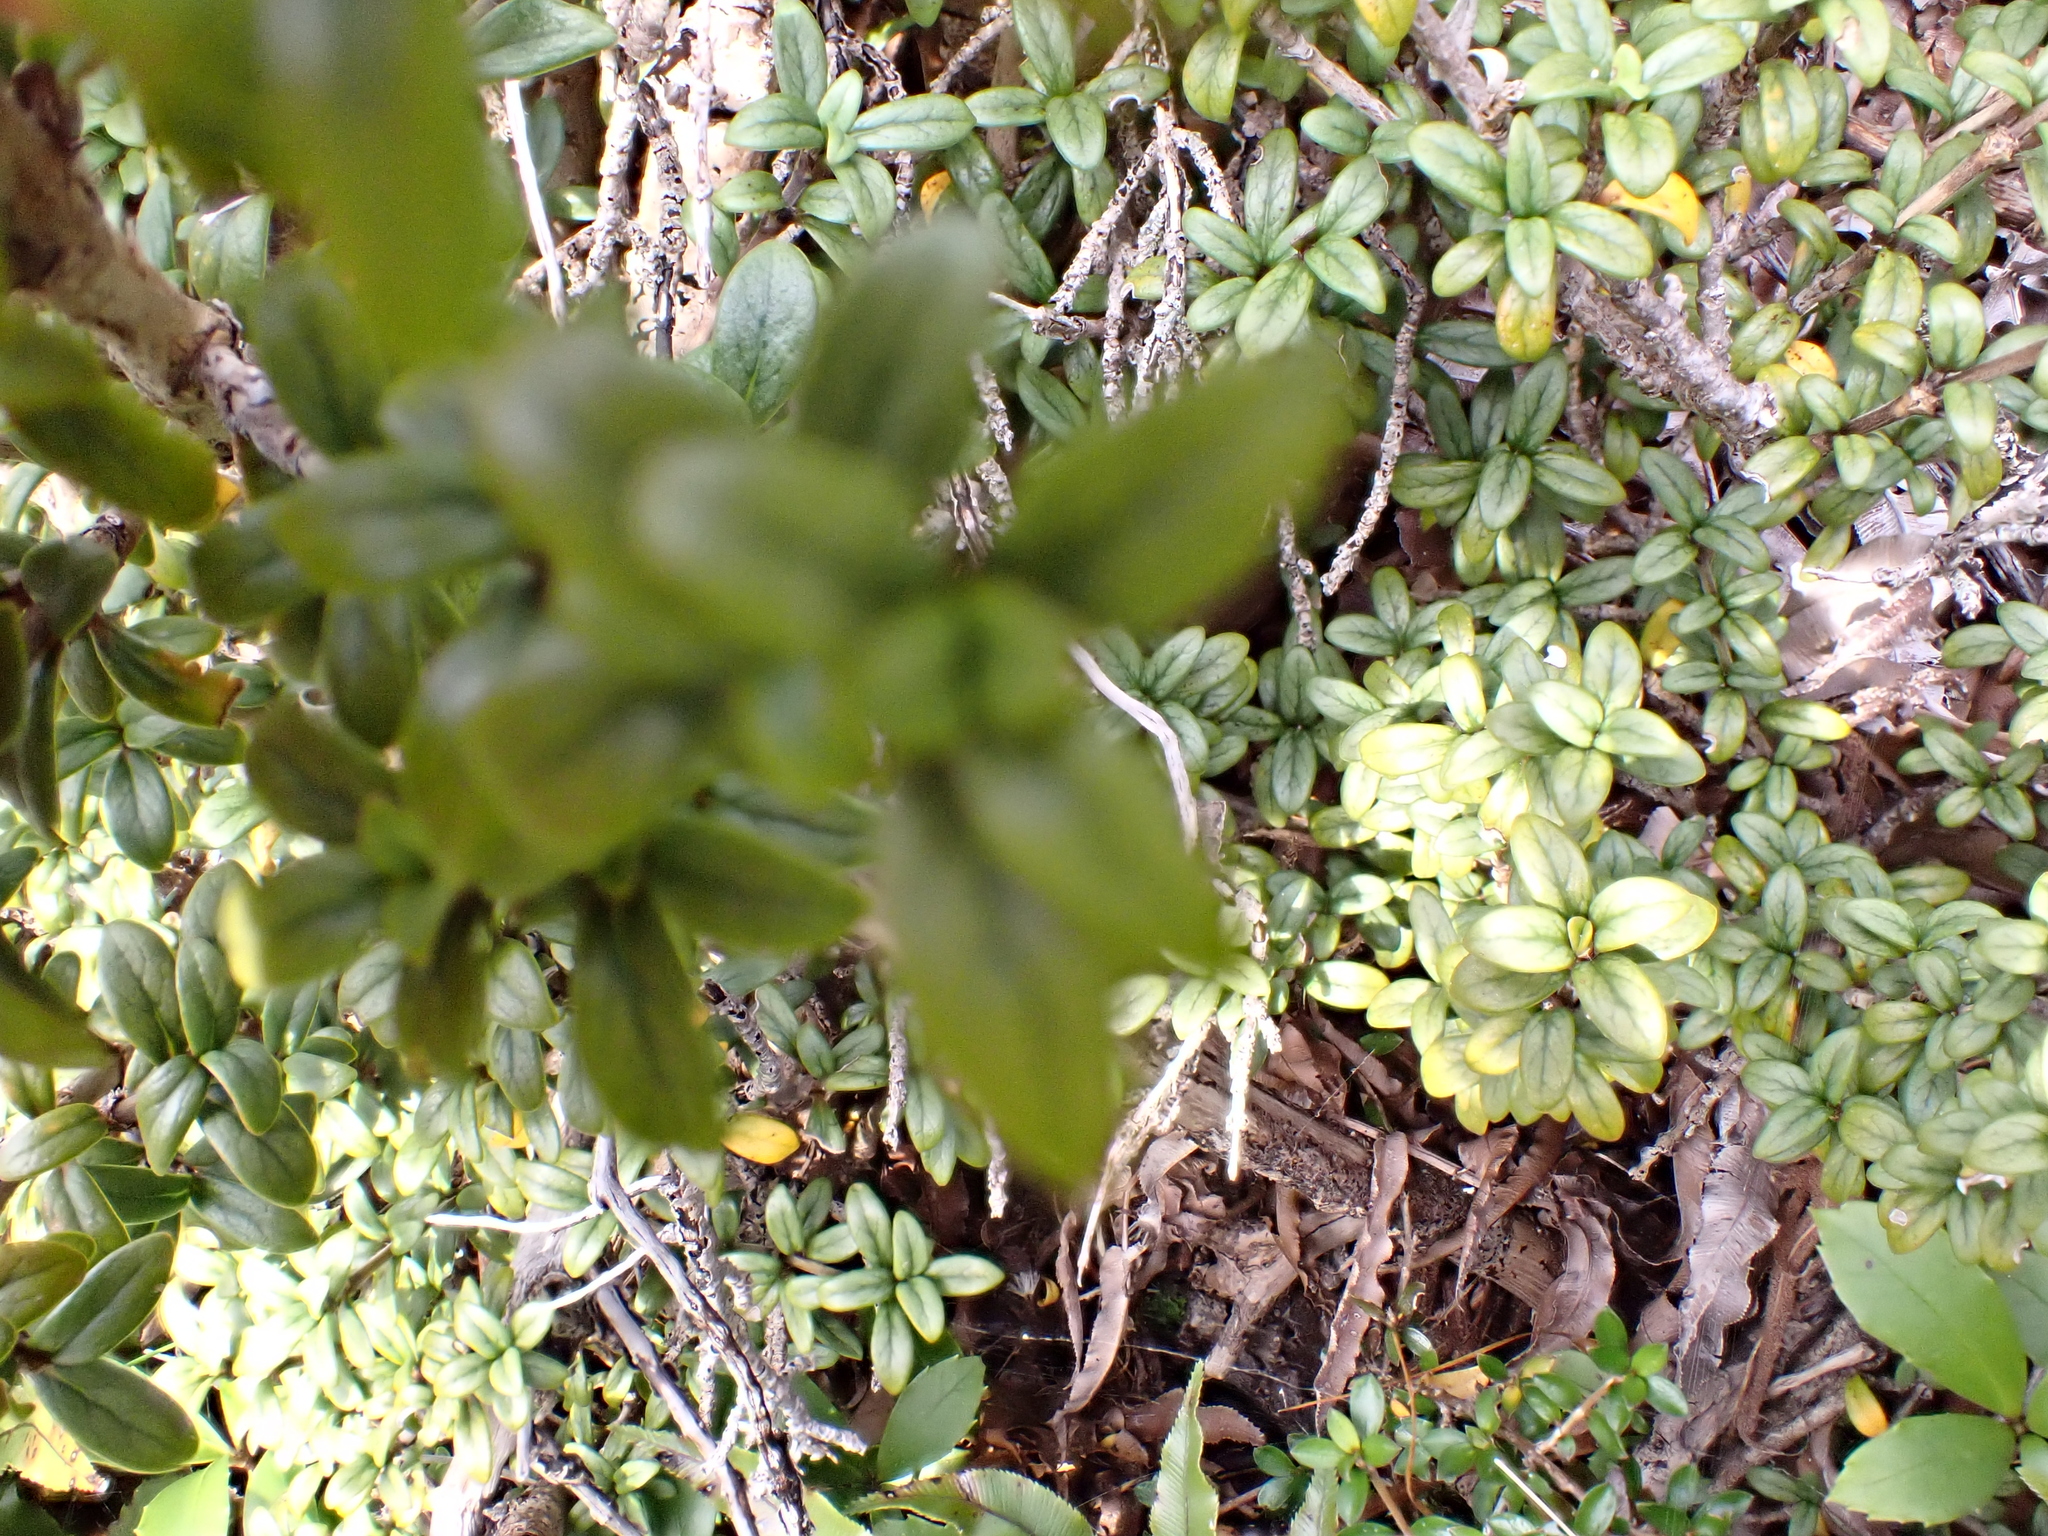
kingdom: Plantae
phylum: Tracheophyta
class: Magnoliopsida
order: Gentianales
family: Rubiaceae
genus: Coprosma
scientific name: Coprosma pseudocuneata
